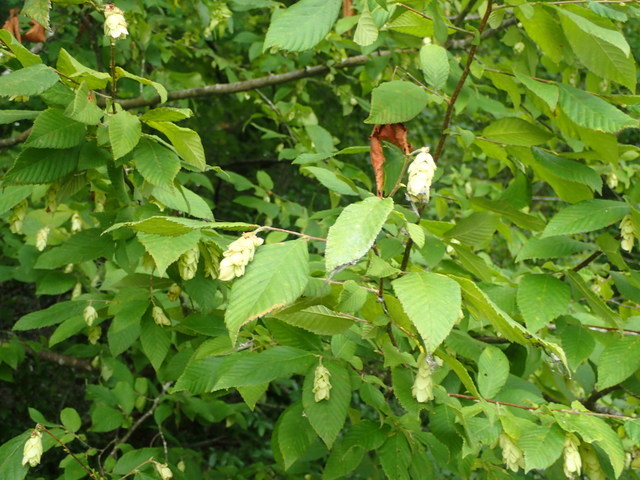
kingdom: Plantae
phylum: Tracheophyta
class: Magnoliopsida
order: Fagales
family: Betulaceae
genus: Ostrya
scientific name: Ostrya virginiana
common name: Ironwood
